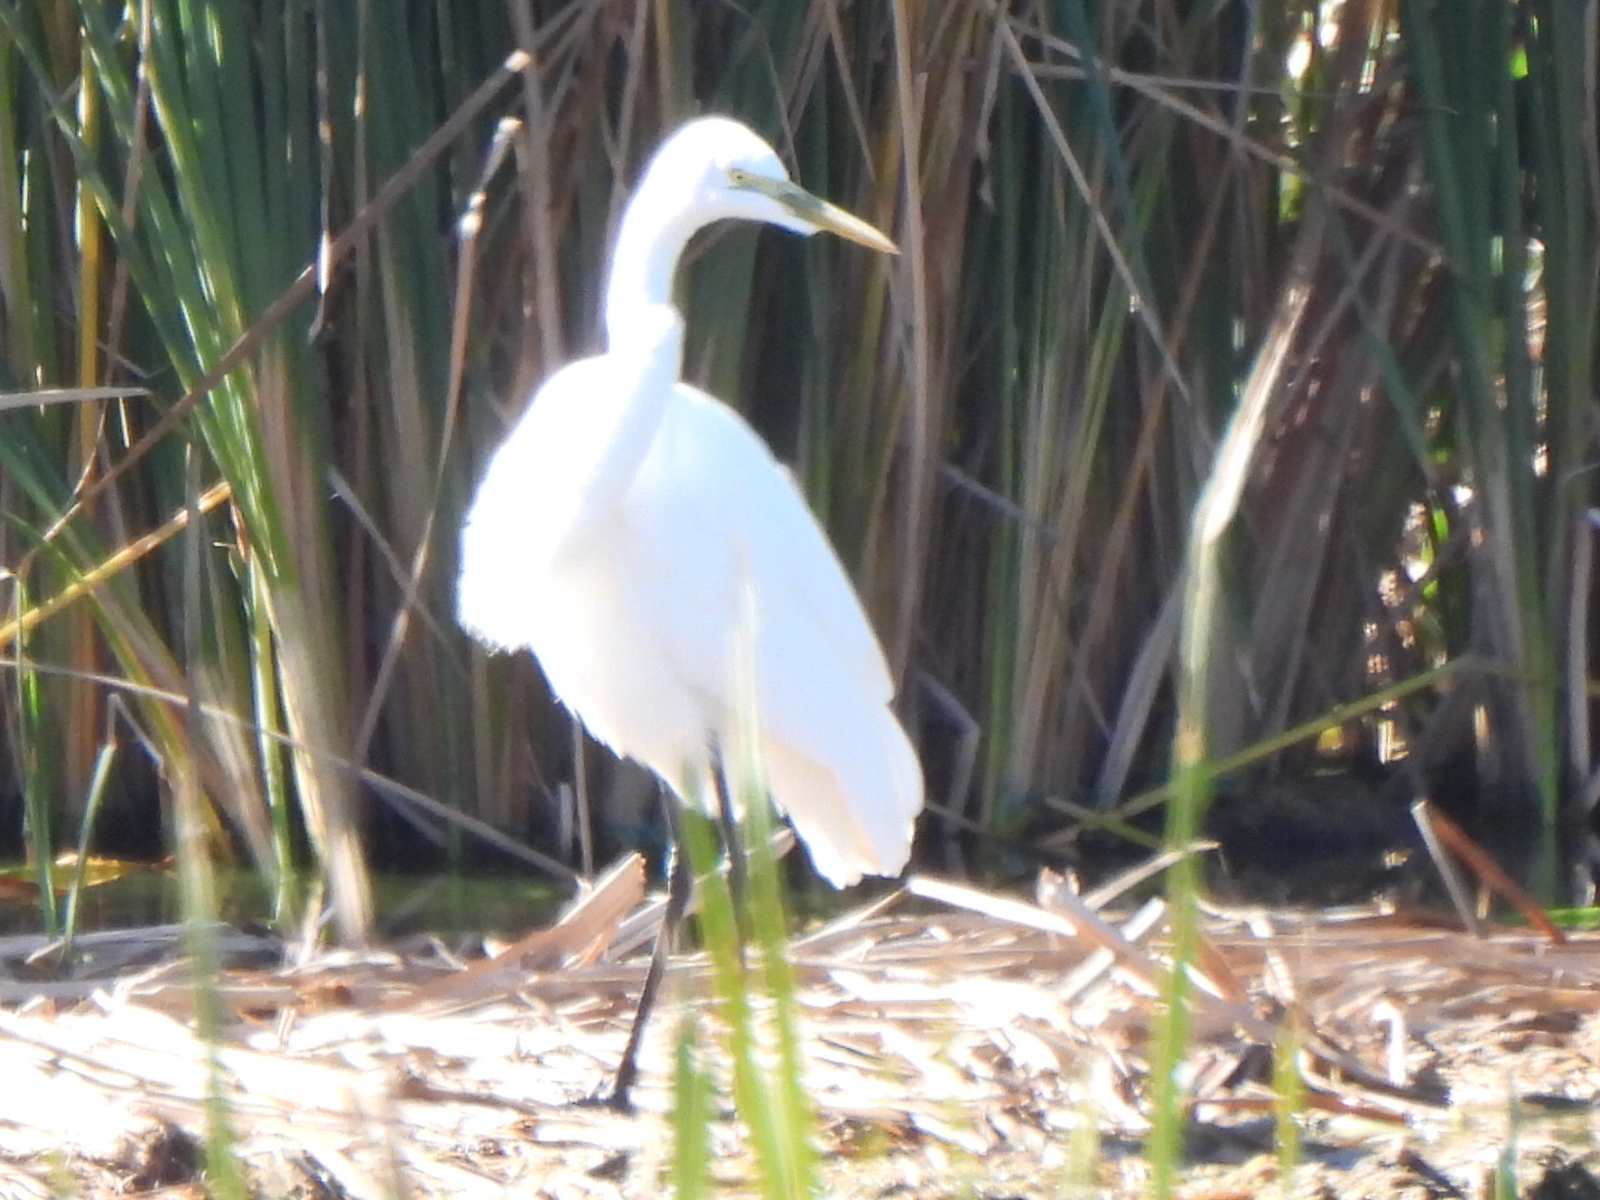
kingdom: Animalia
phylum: Chordata
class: Aves
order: Pelecaniformes
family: Ardeidae
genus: Ardea
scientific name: Ardea alba
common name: Great egret
